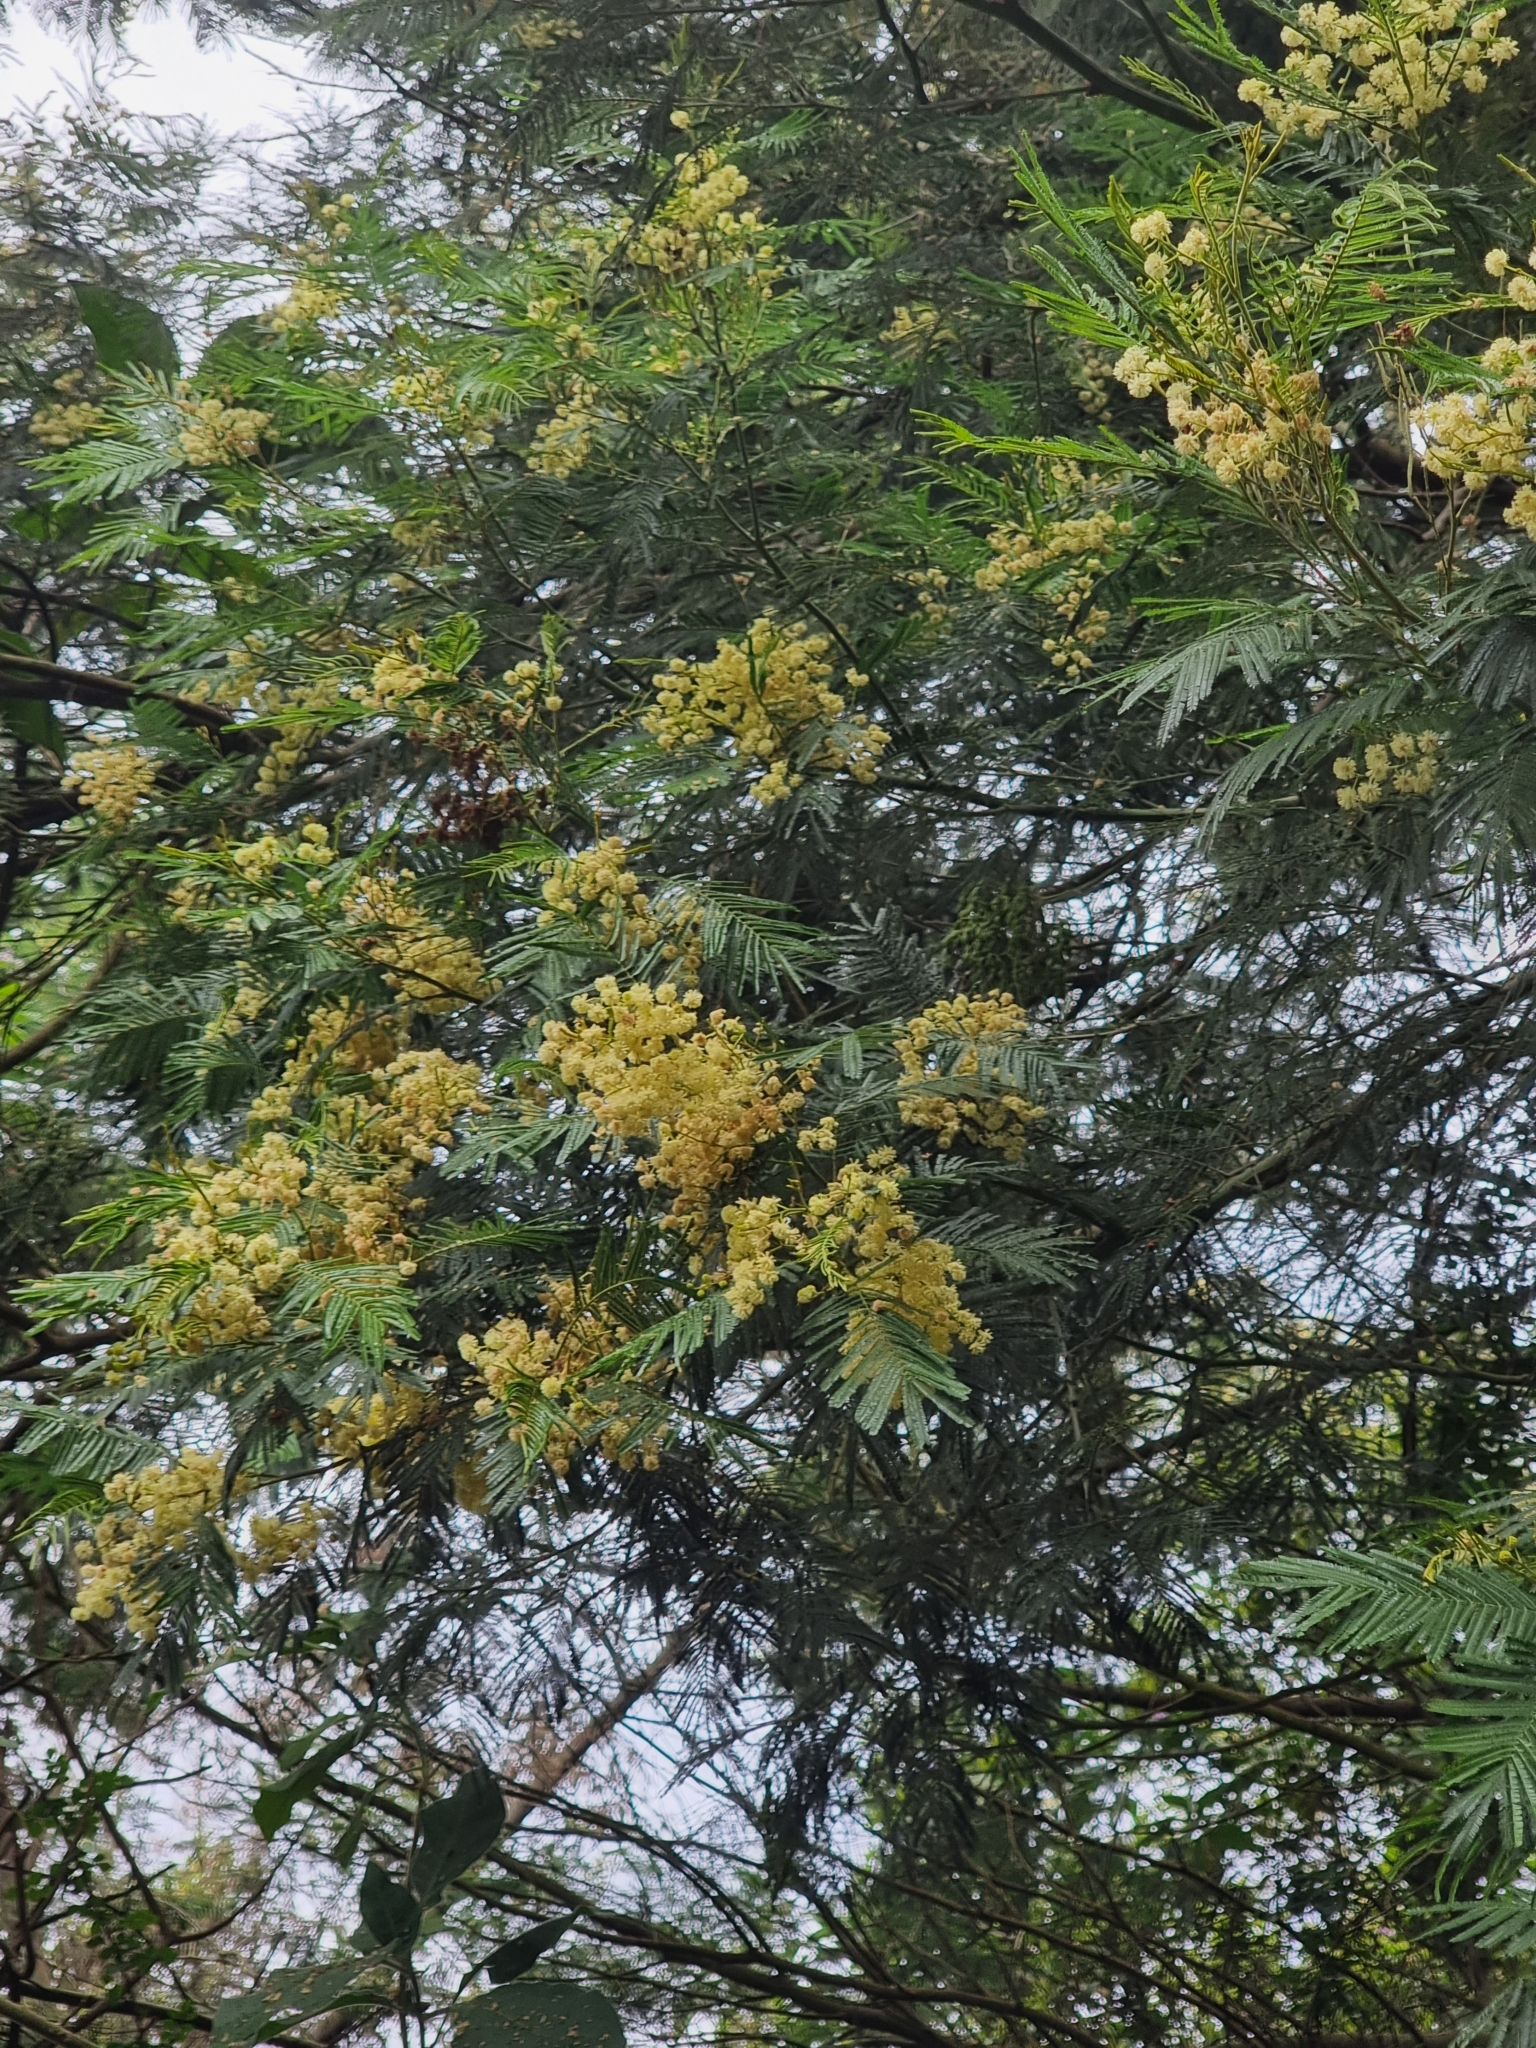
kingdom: Plantae
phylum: Tracheophyta
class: Magnoliopsida
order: Fabales
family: Fabaceae
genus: Acacia
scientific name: Acacia mearnsii
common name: Black wattle
